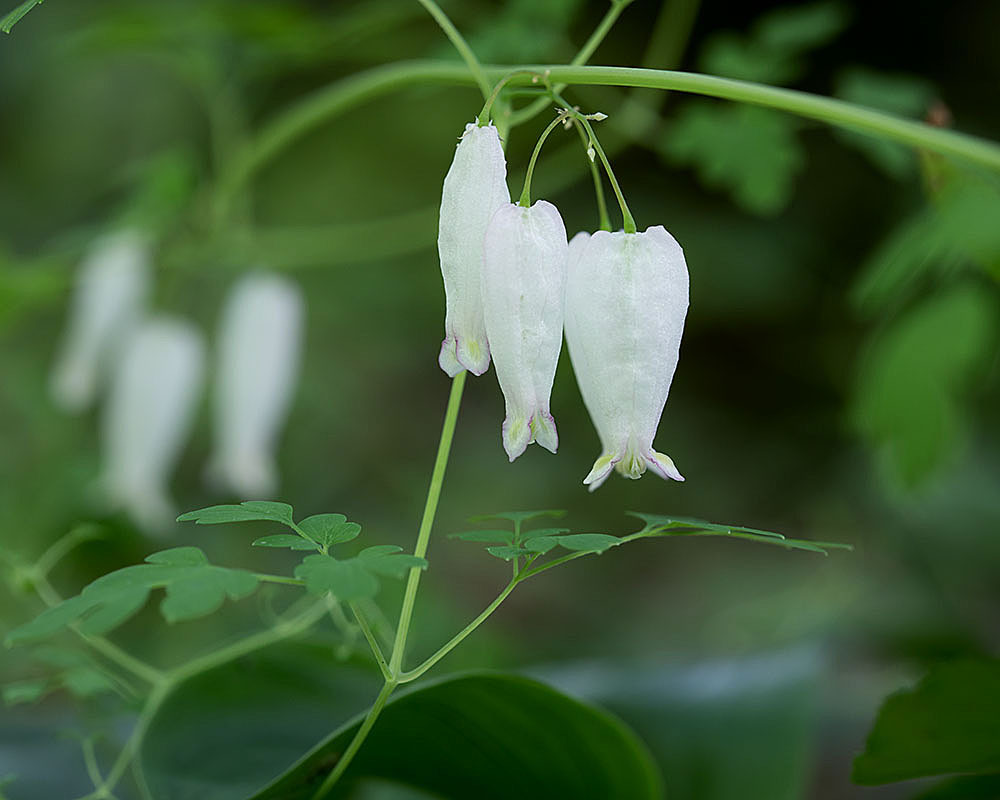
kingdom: Plantae
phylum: Tracheophyta
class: Magnoliopsida
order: Ranunculales
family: Papaveraceae
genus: Adlumia
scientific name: Adlumia fungosa
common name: Mountain-fringe
